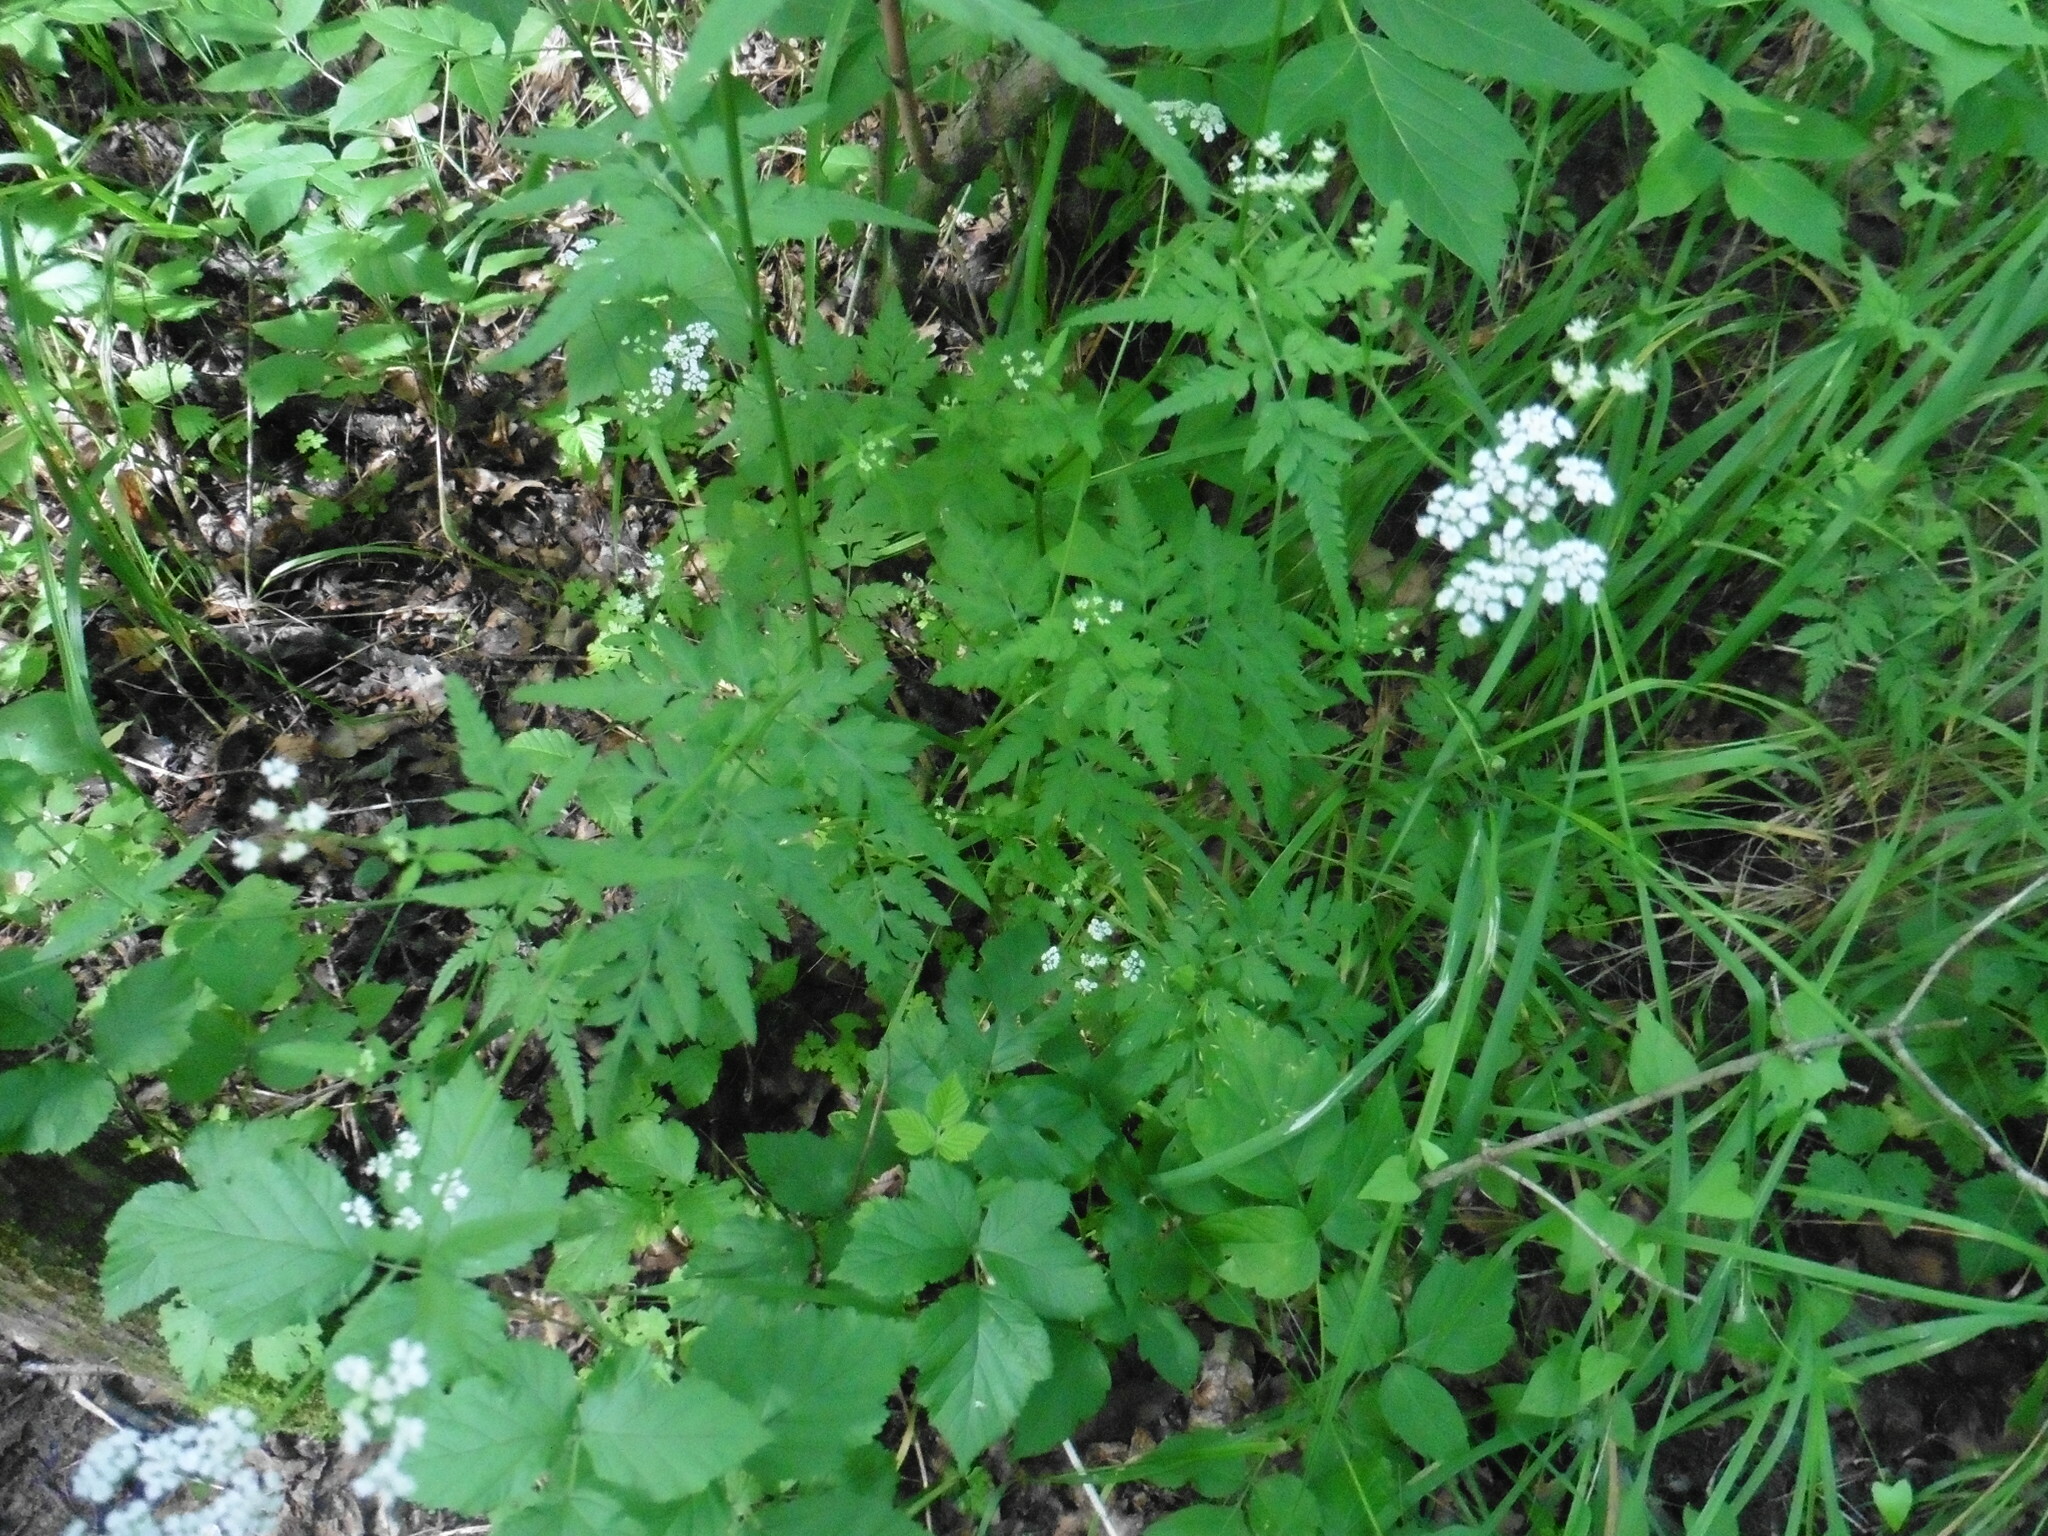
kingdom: Plantae
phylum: Tracheophyta
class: Magnoliopsida
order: Apiales
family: Apiaceae
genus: Torilis
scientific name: Torilis japonica
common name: Upright hedge-parsley
